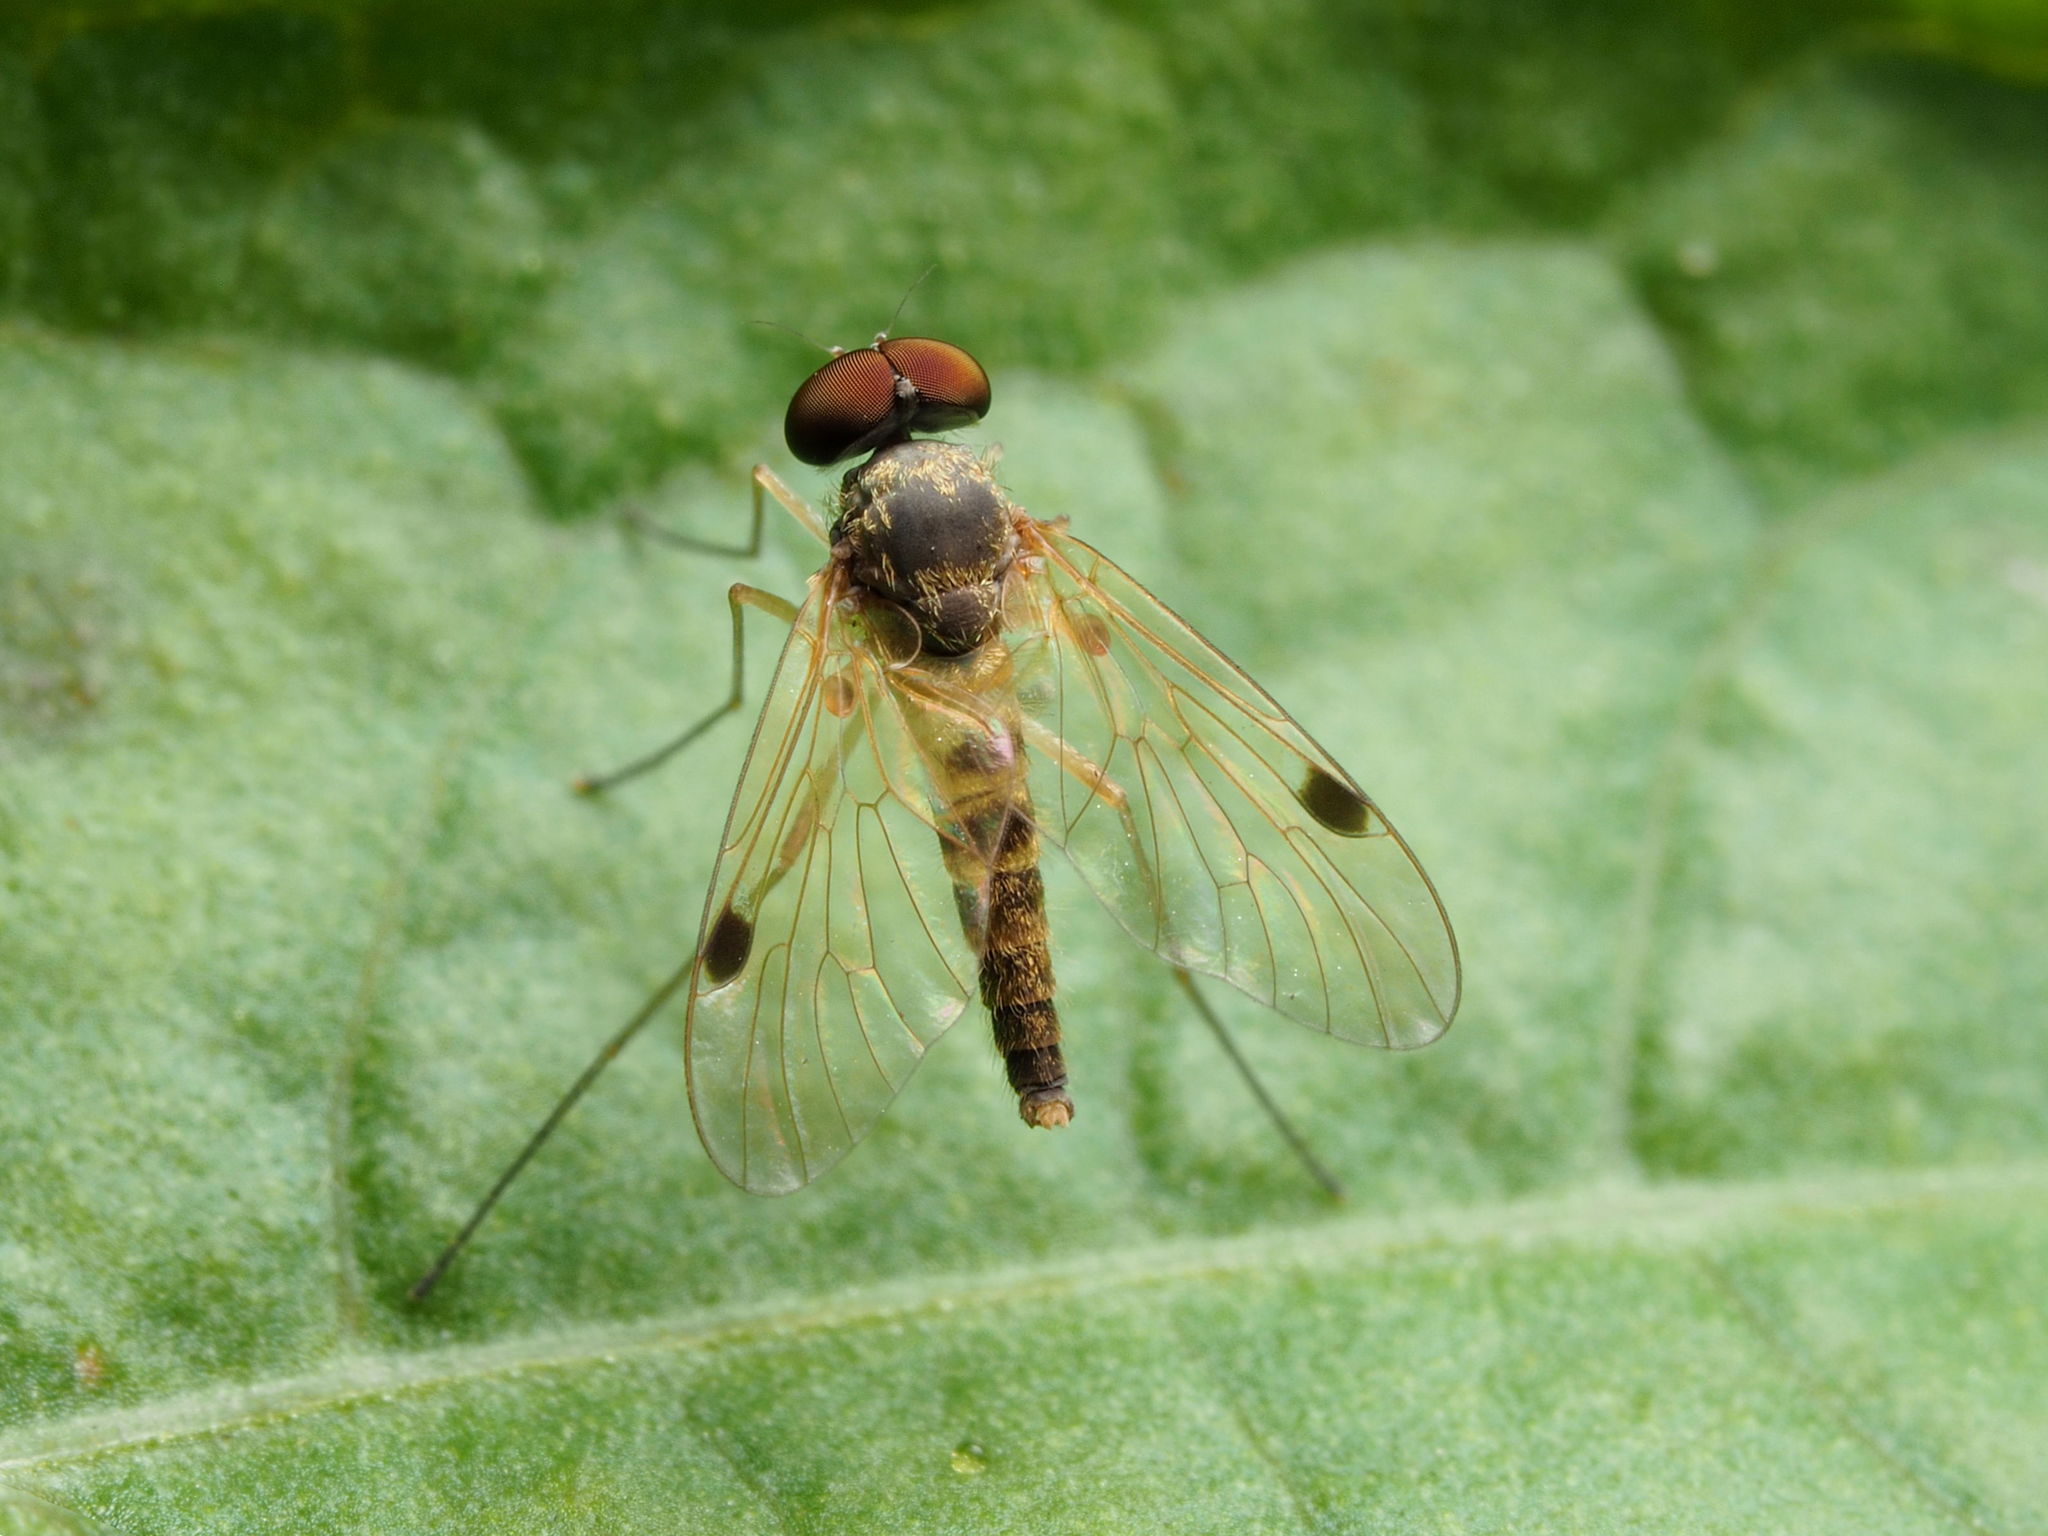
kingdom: Animalia
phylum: Arthropoda
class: Insecta
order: Diptera
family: Rhagionidae
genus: Chrysopilus
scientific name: Chrysopilus modestus
